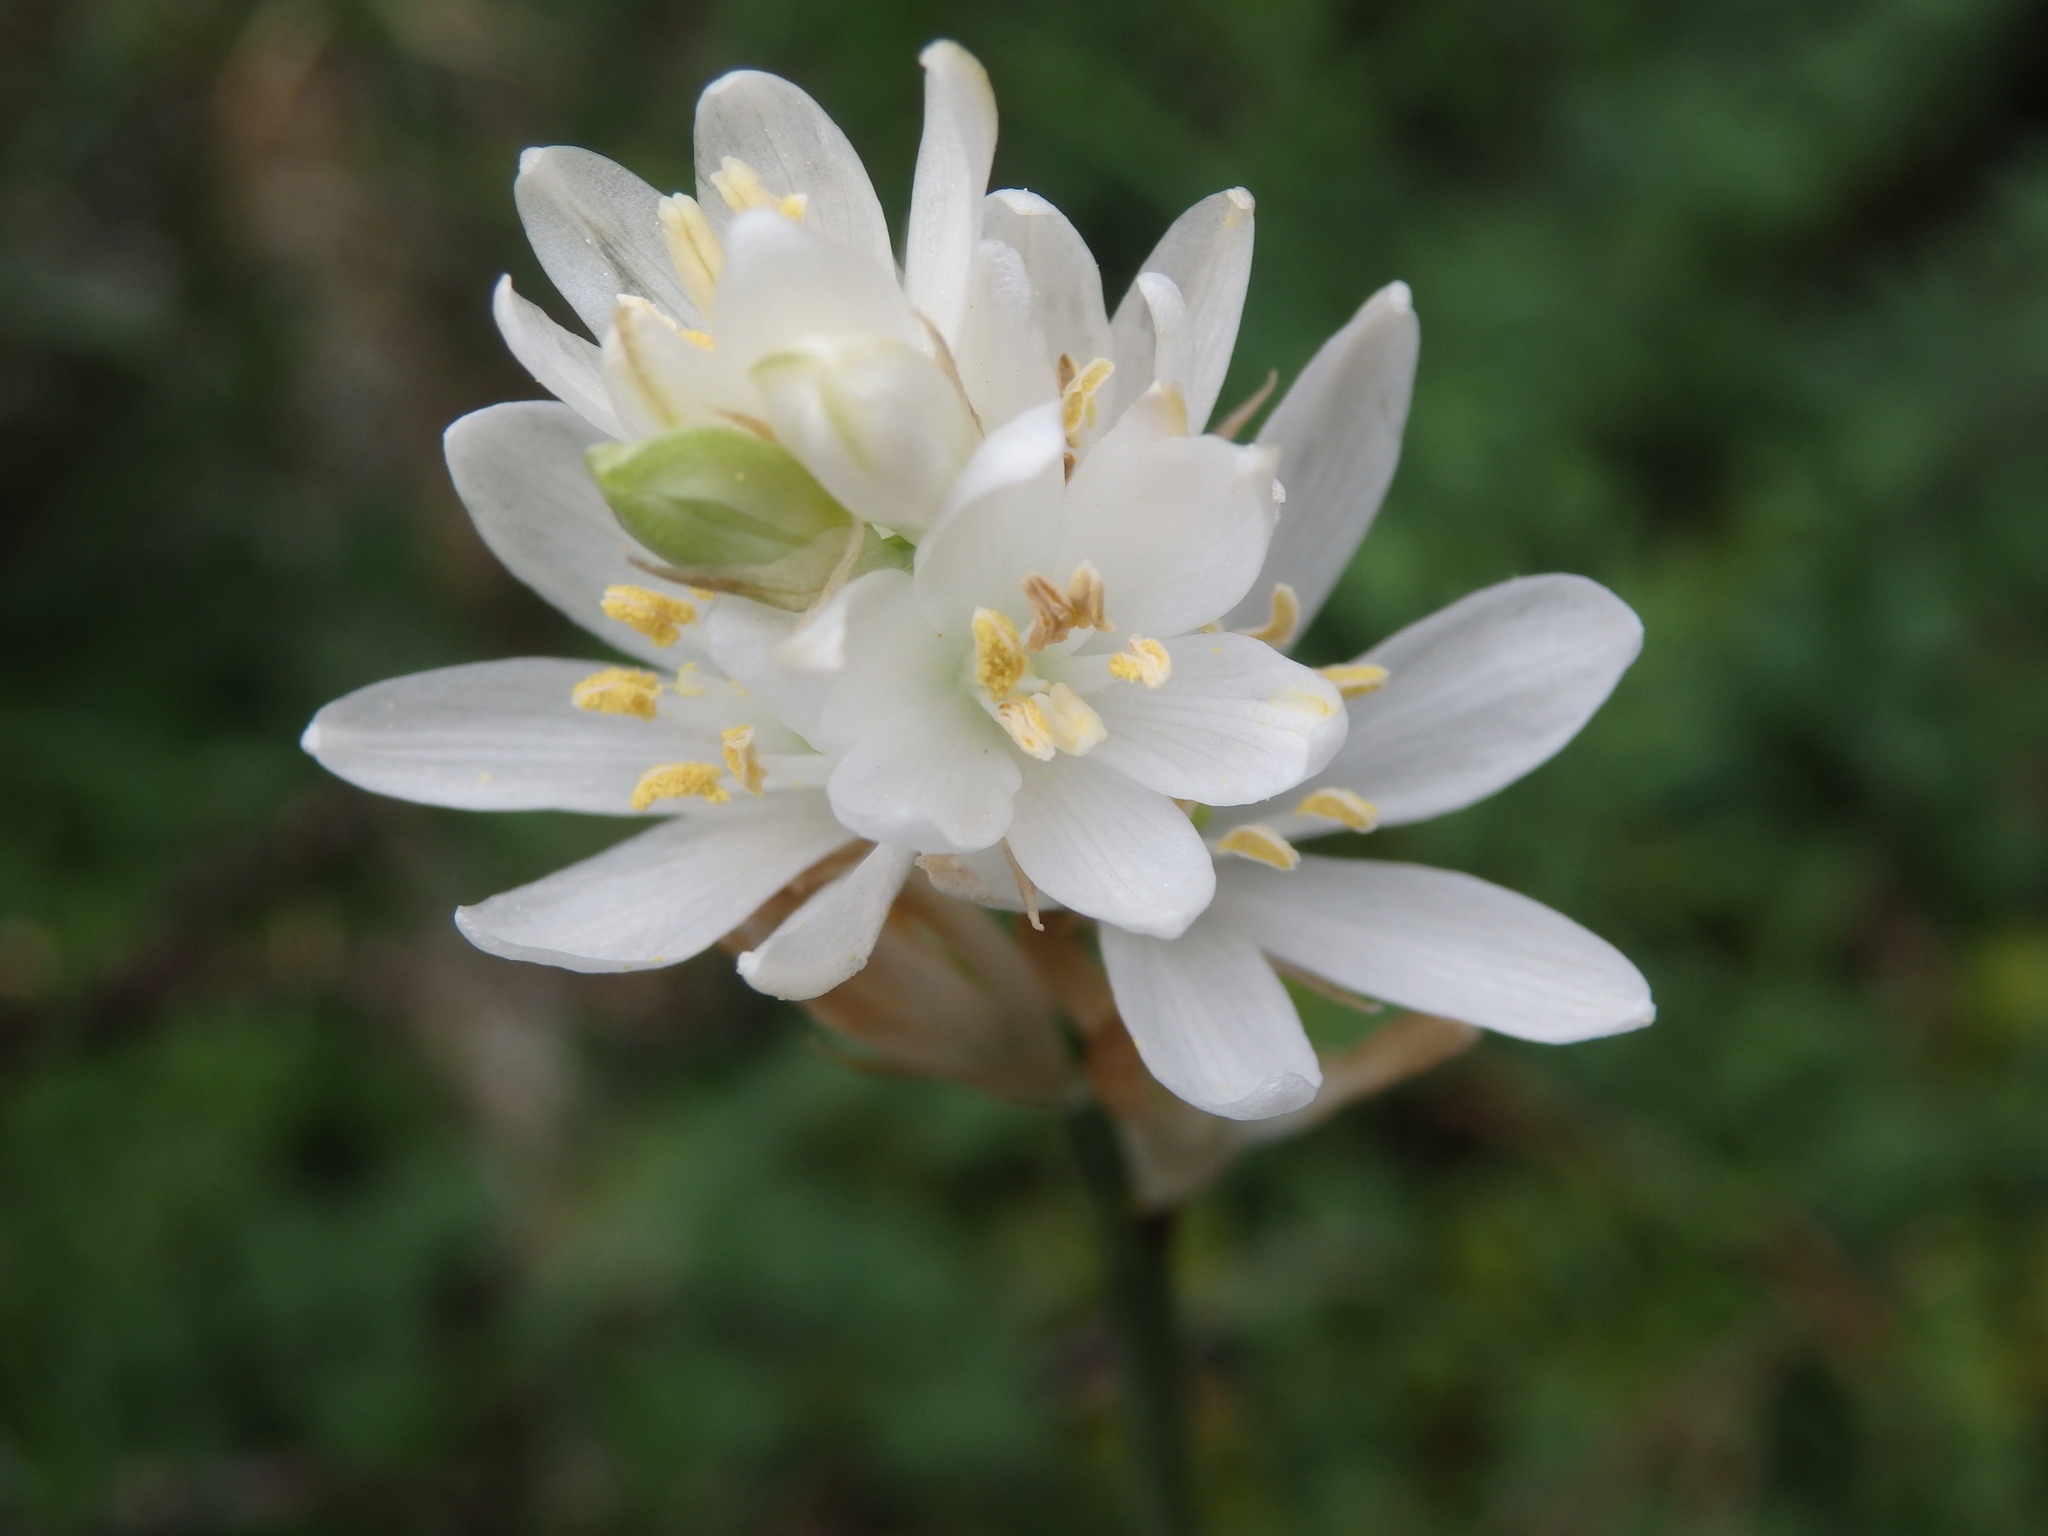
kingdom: Plantae
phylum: Tracheophyta
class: Liliopsida
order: Asparagales
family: Asparagaceae
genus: Ornithogalum
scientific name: Ornithogalum concinnum
